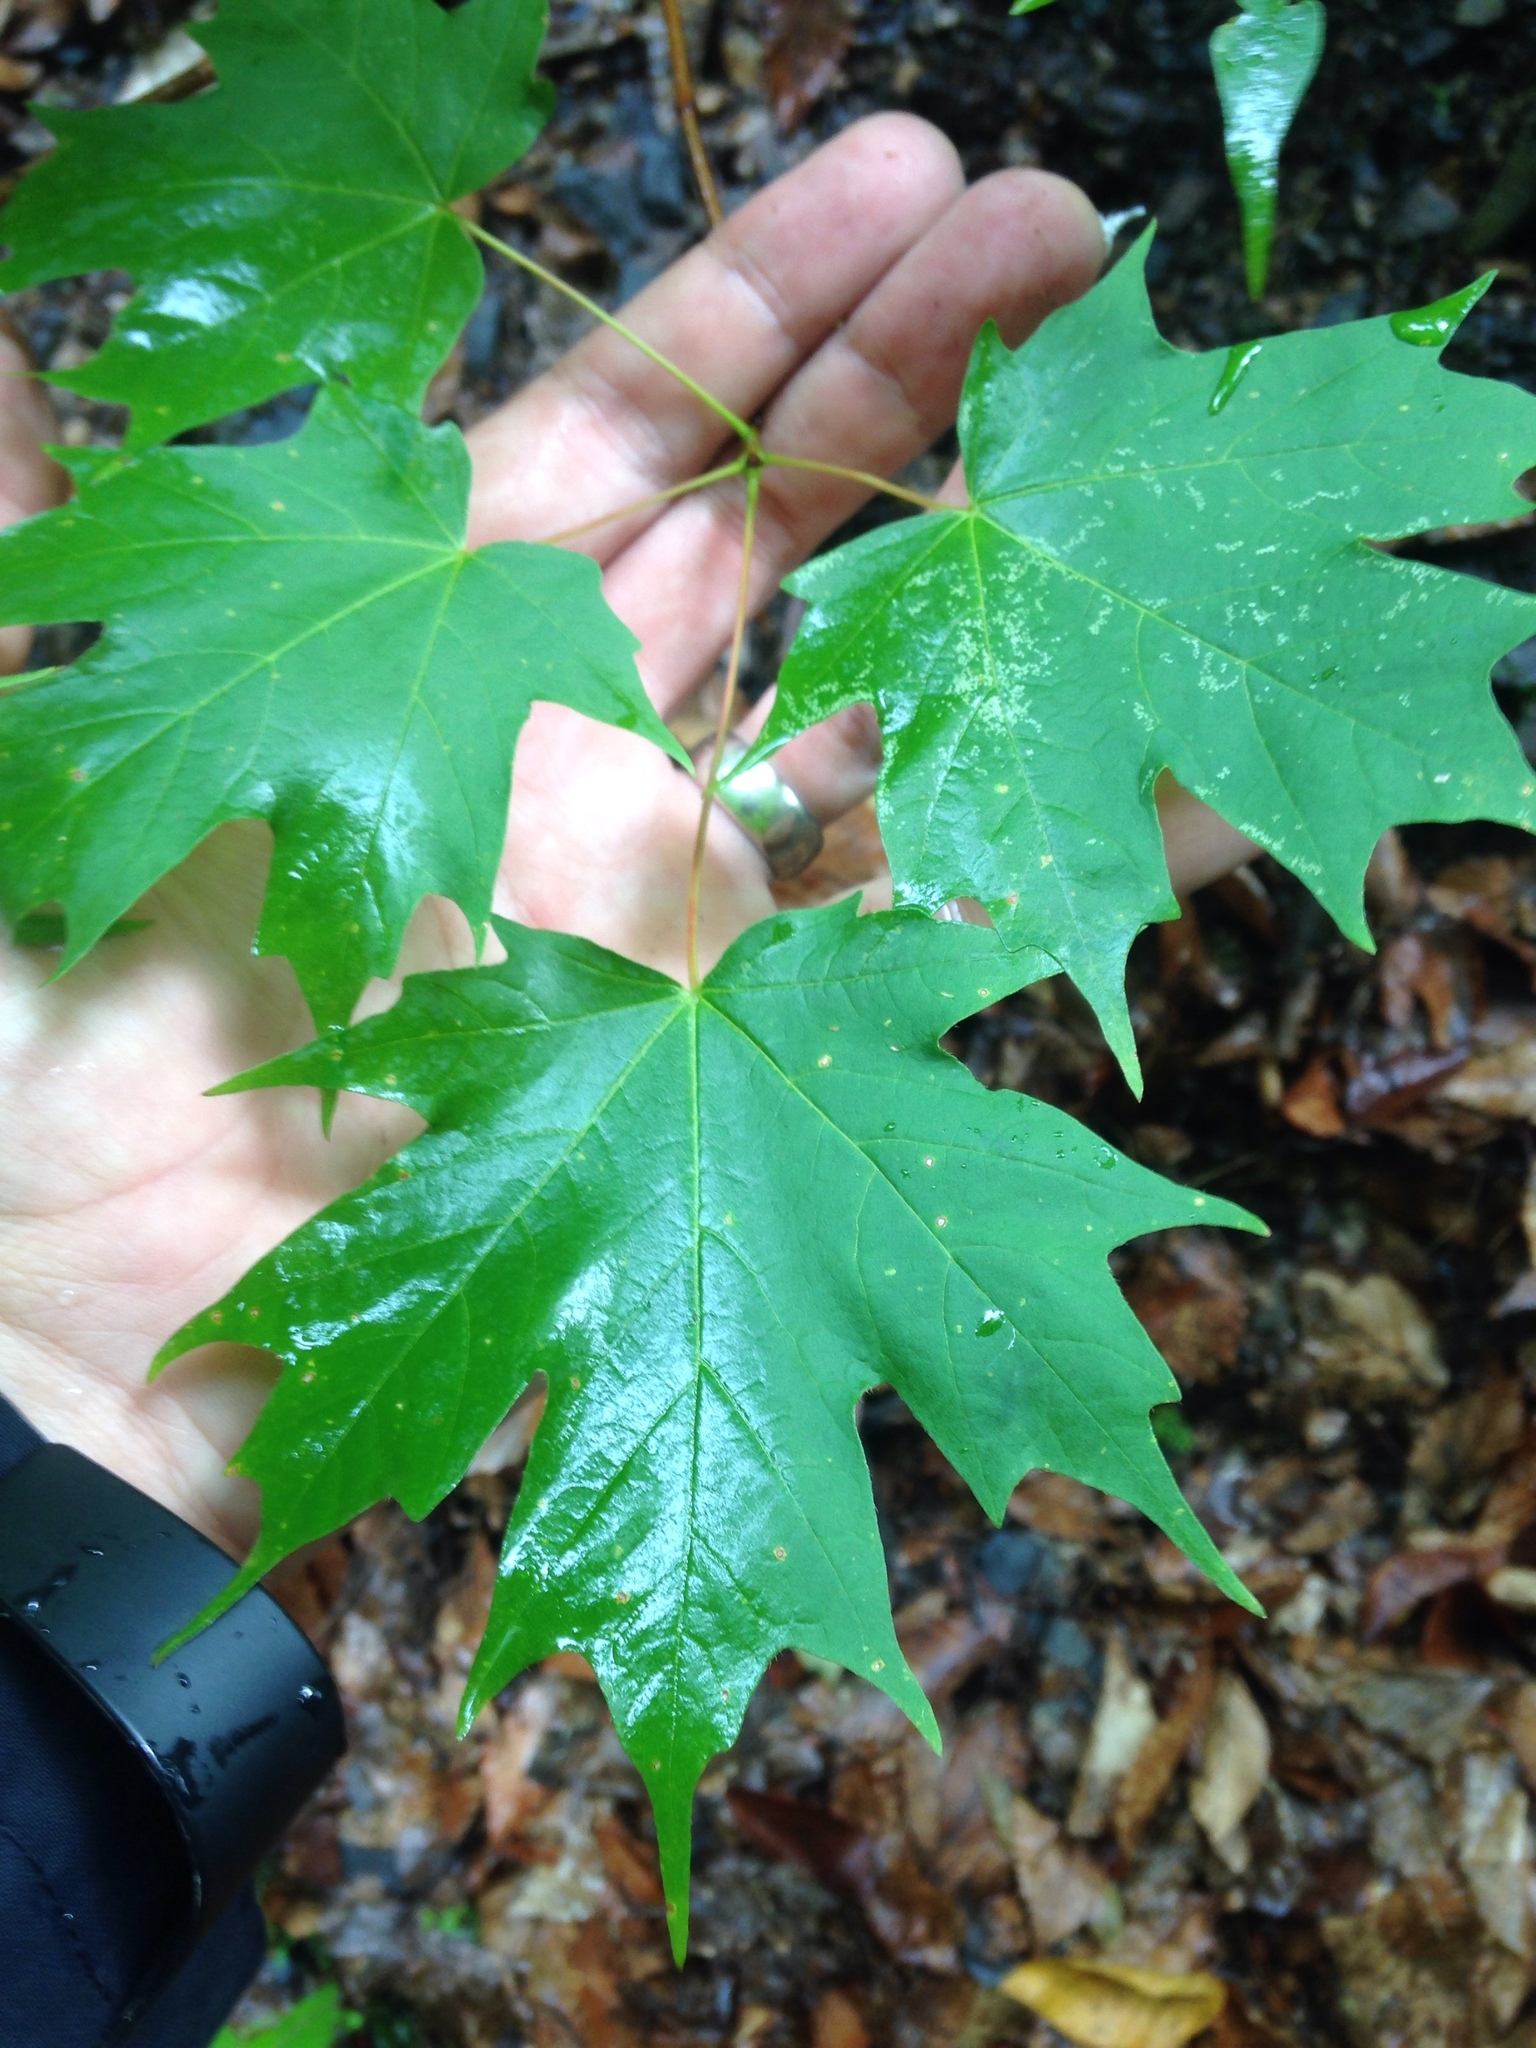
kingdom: Plantae
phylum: Tracheophyta
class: Magnoliopsida
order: Sapindales
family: Sapindaceae
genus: Acer
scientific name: Acer saccharum
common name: Sugar maple
